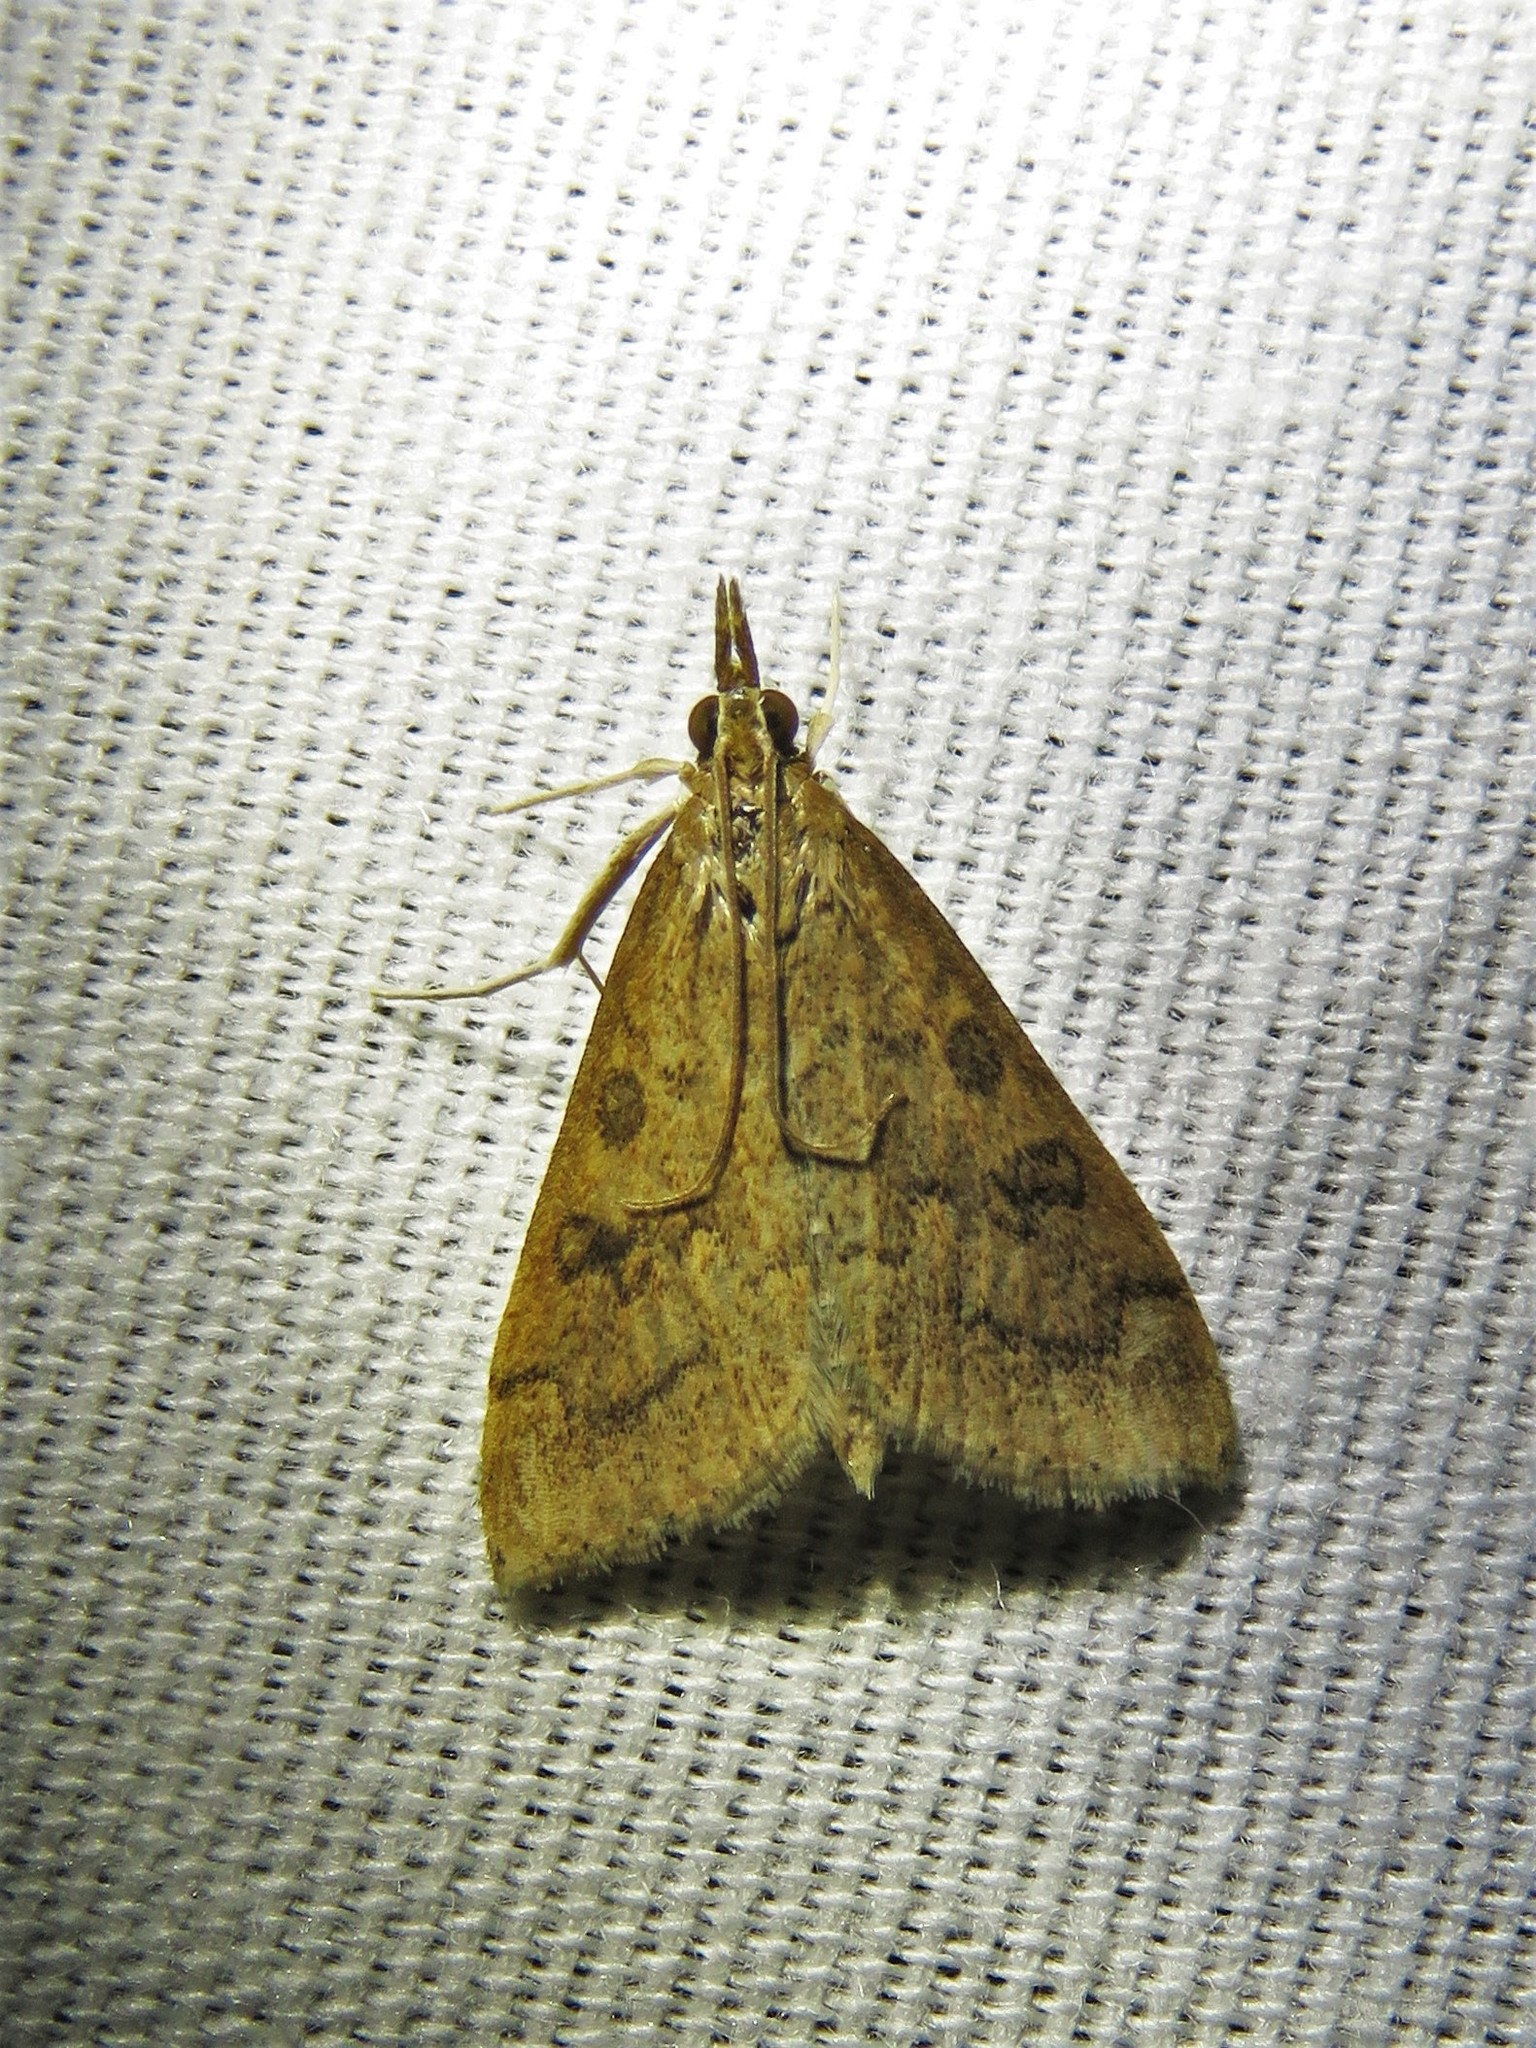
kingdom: Animalia
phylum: Arthropoda
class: Insecta
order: Lepidoptera
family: Crambidae
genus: Udea
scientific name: Udea rubigalis
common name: Celery leaftier moth
